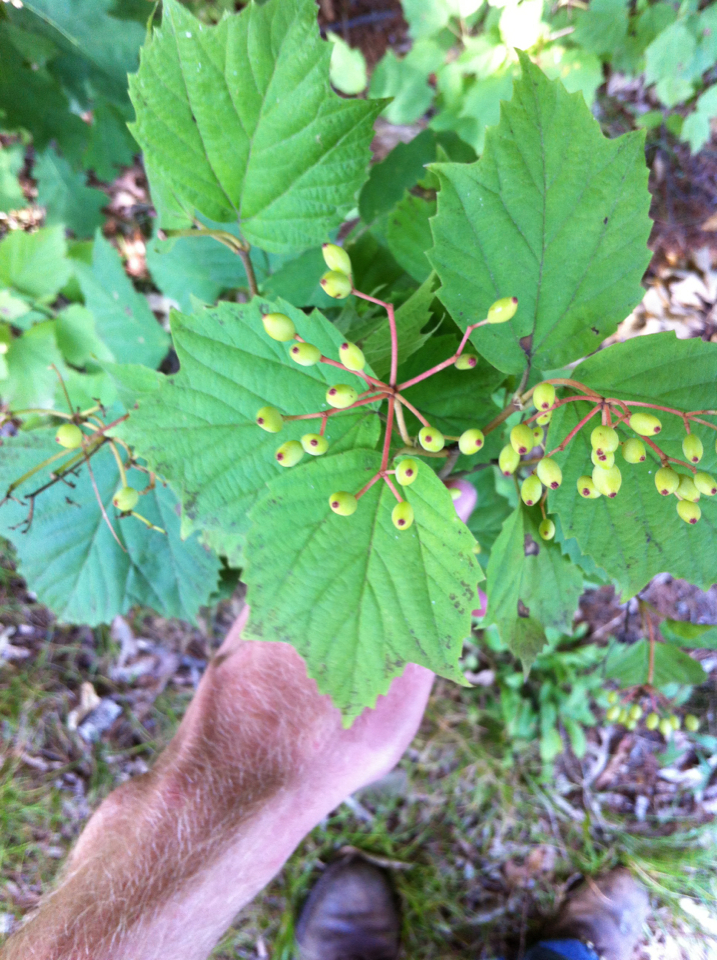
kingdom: Plantae
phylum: Tracheophyta
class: Magnoliopsida
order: Dipsacales
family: Viburnaceae
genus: Viburnum
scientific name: Viburnum acerifolium
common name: Dockmackie
